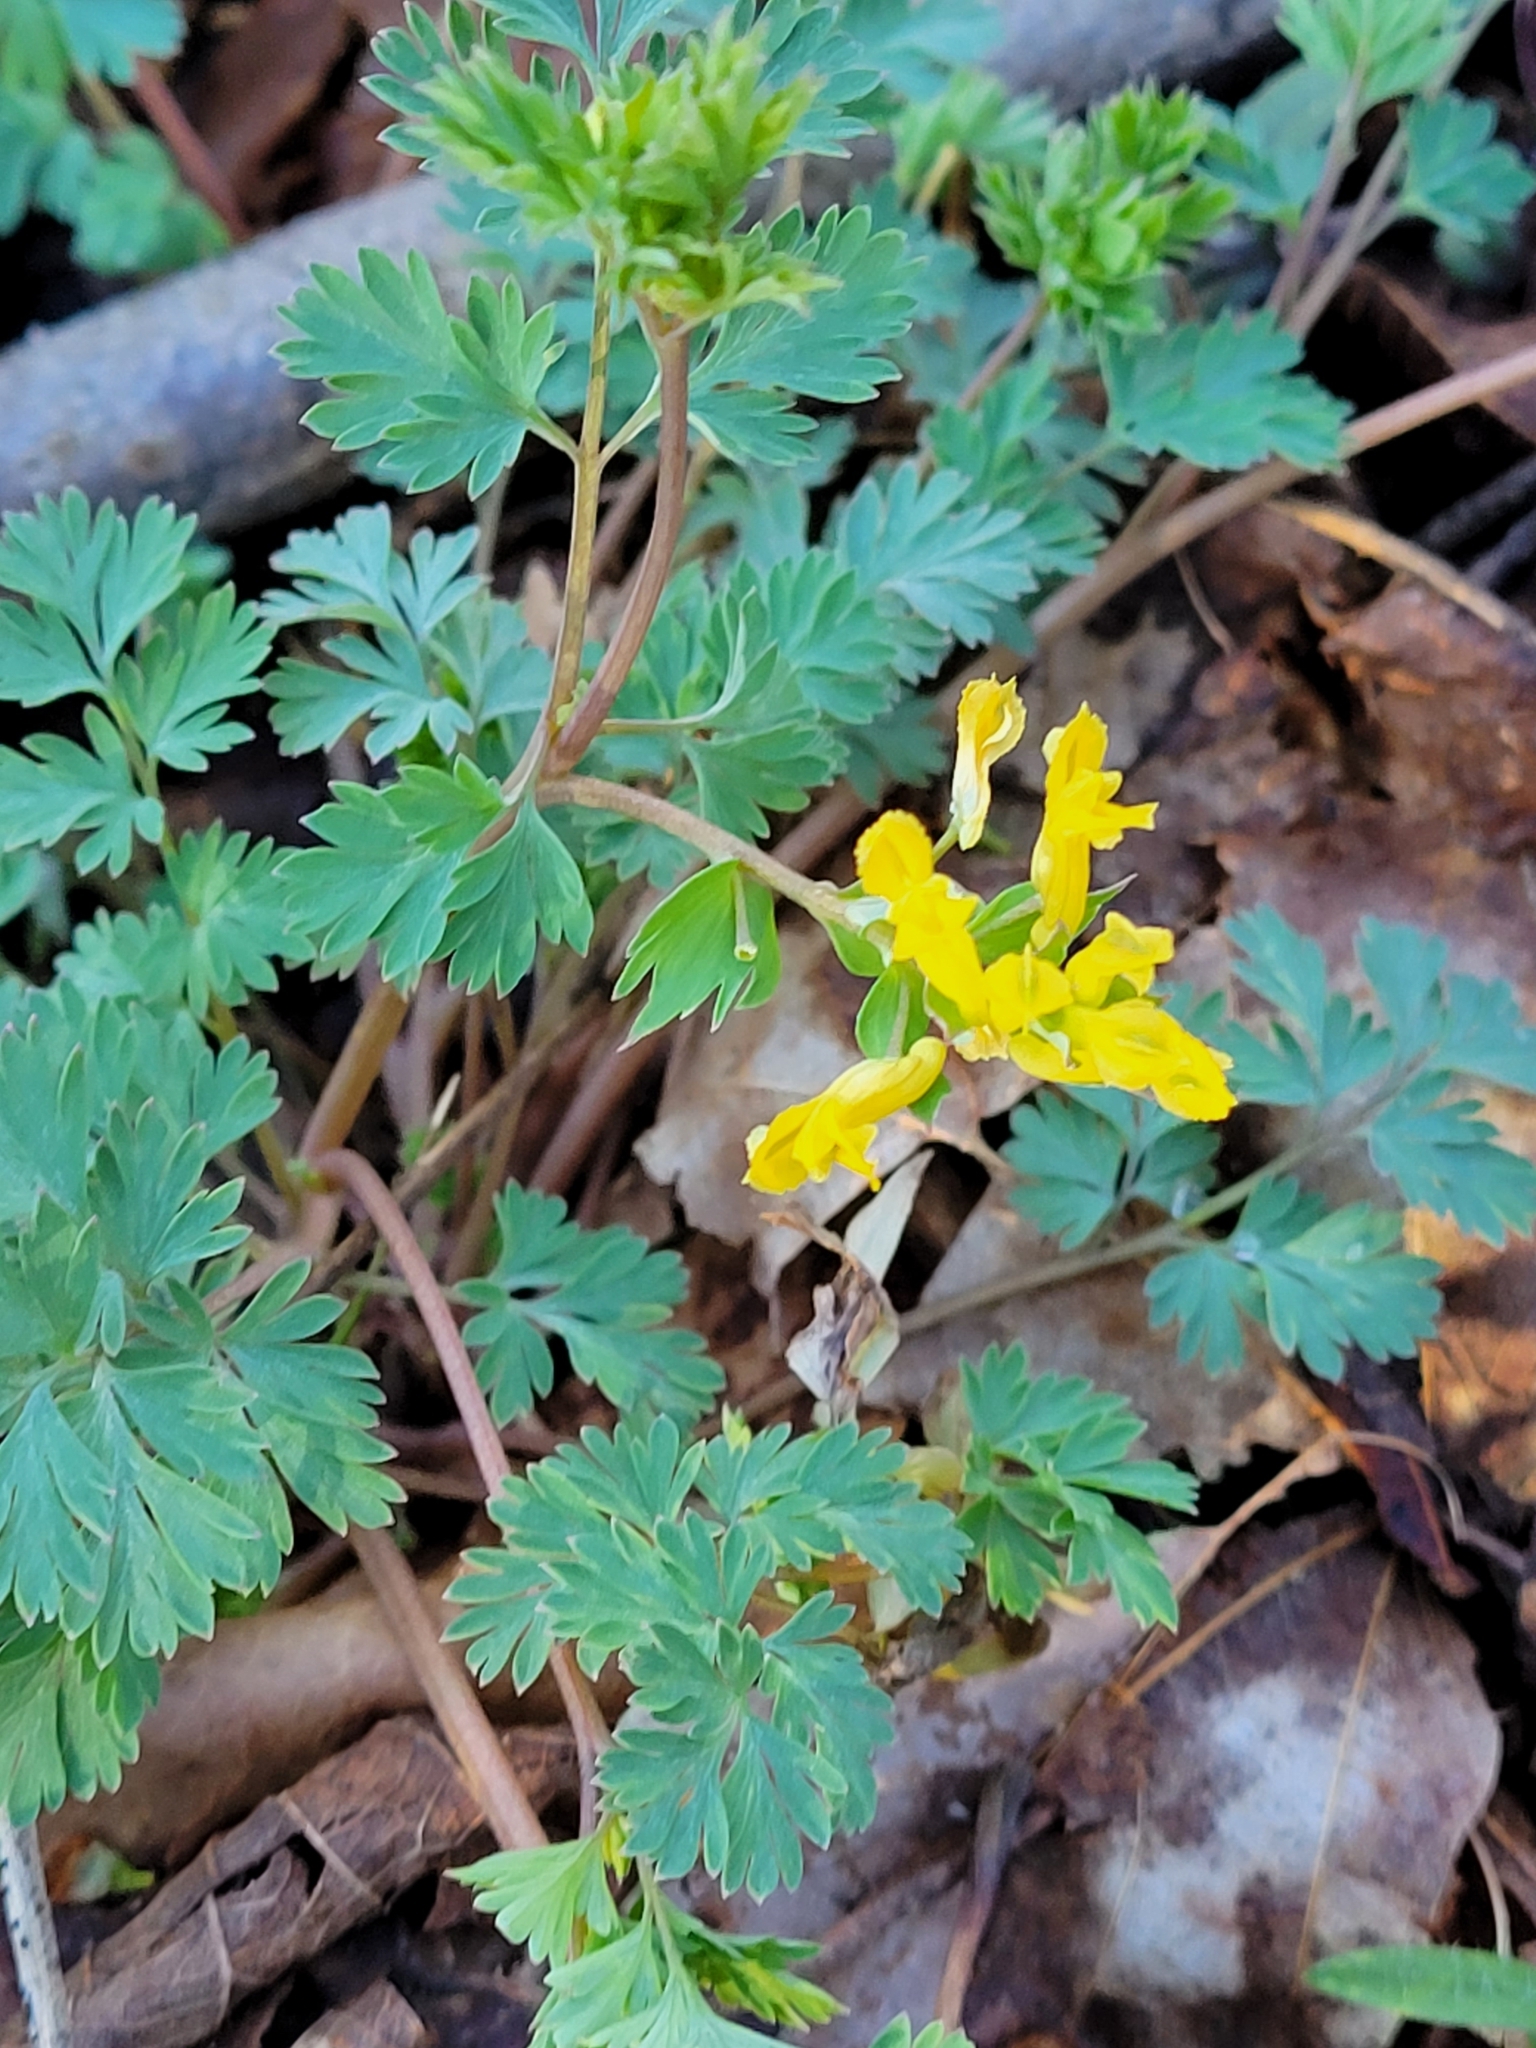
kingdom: Plantae
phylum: Tracheophyta
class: Magnoliopsida
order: Ranunculales
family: Papaveraceae
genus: Corydalis
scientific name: Corydalis flavula
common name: Yellow corydalis
